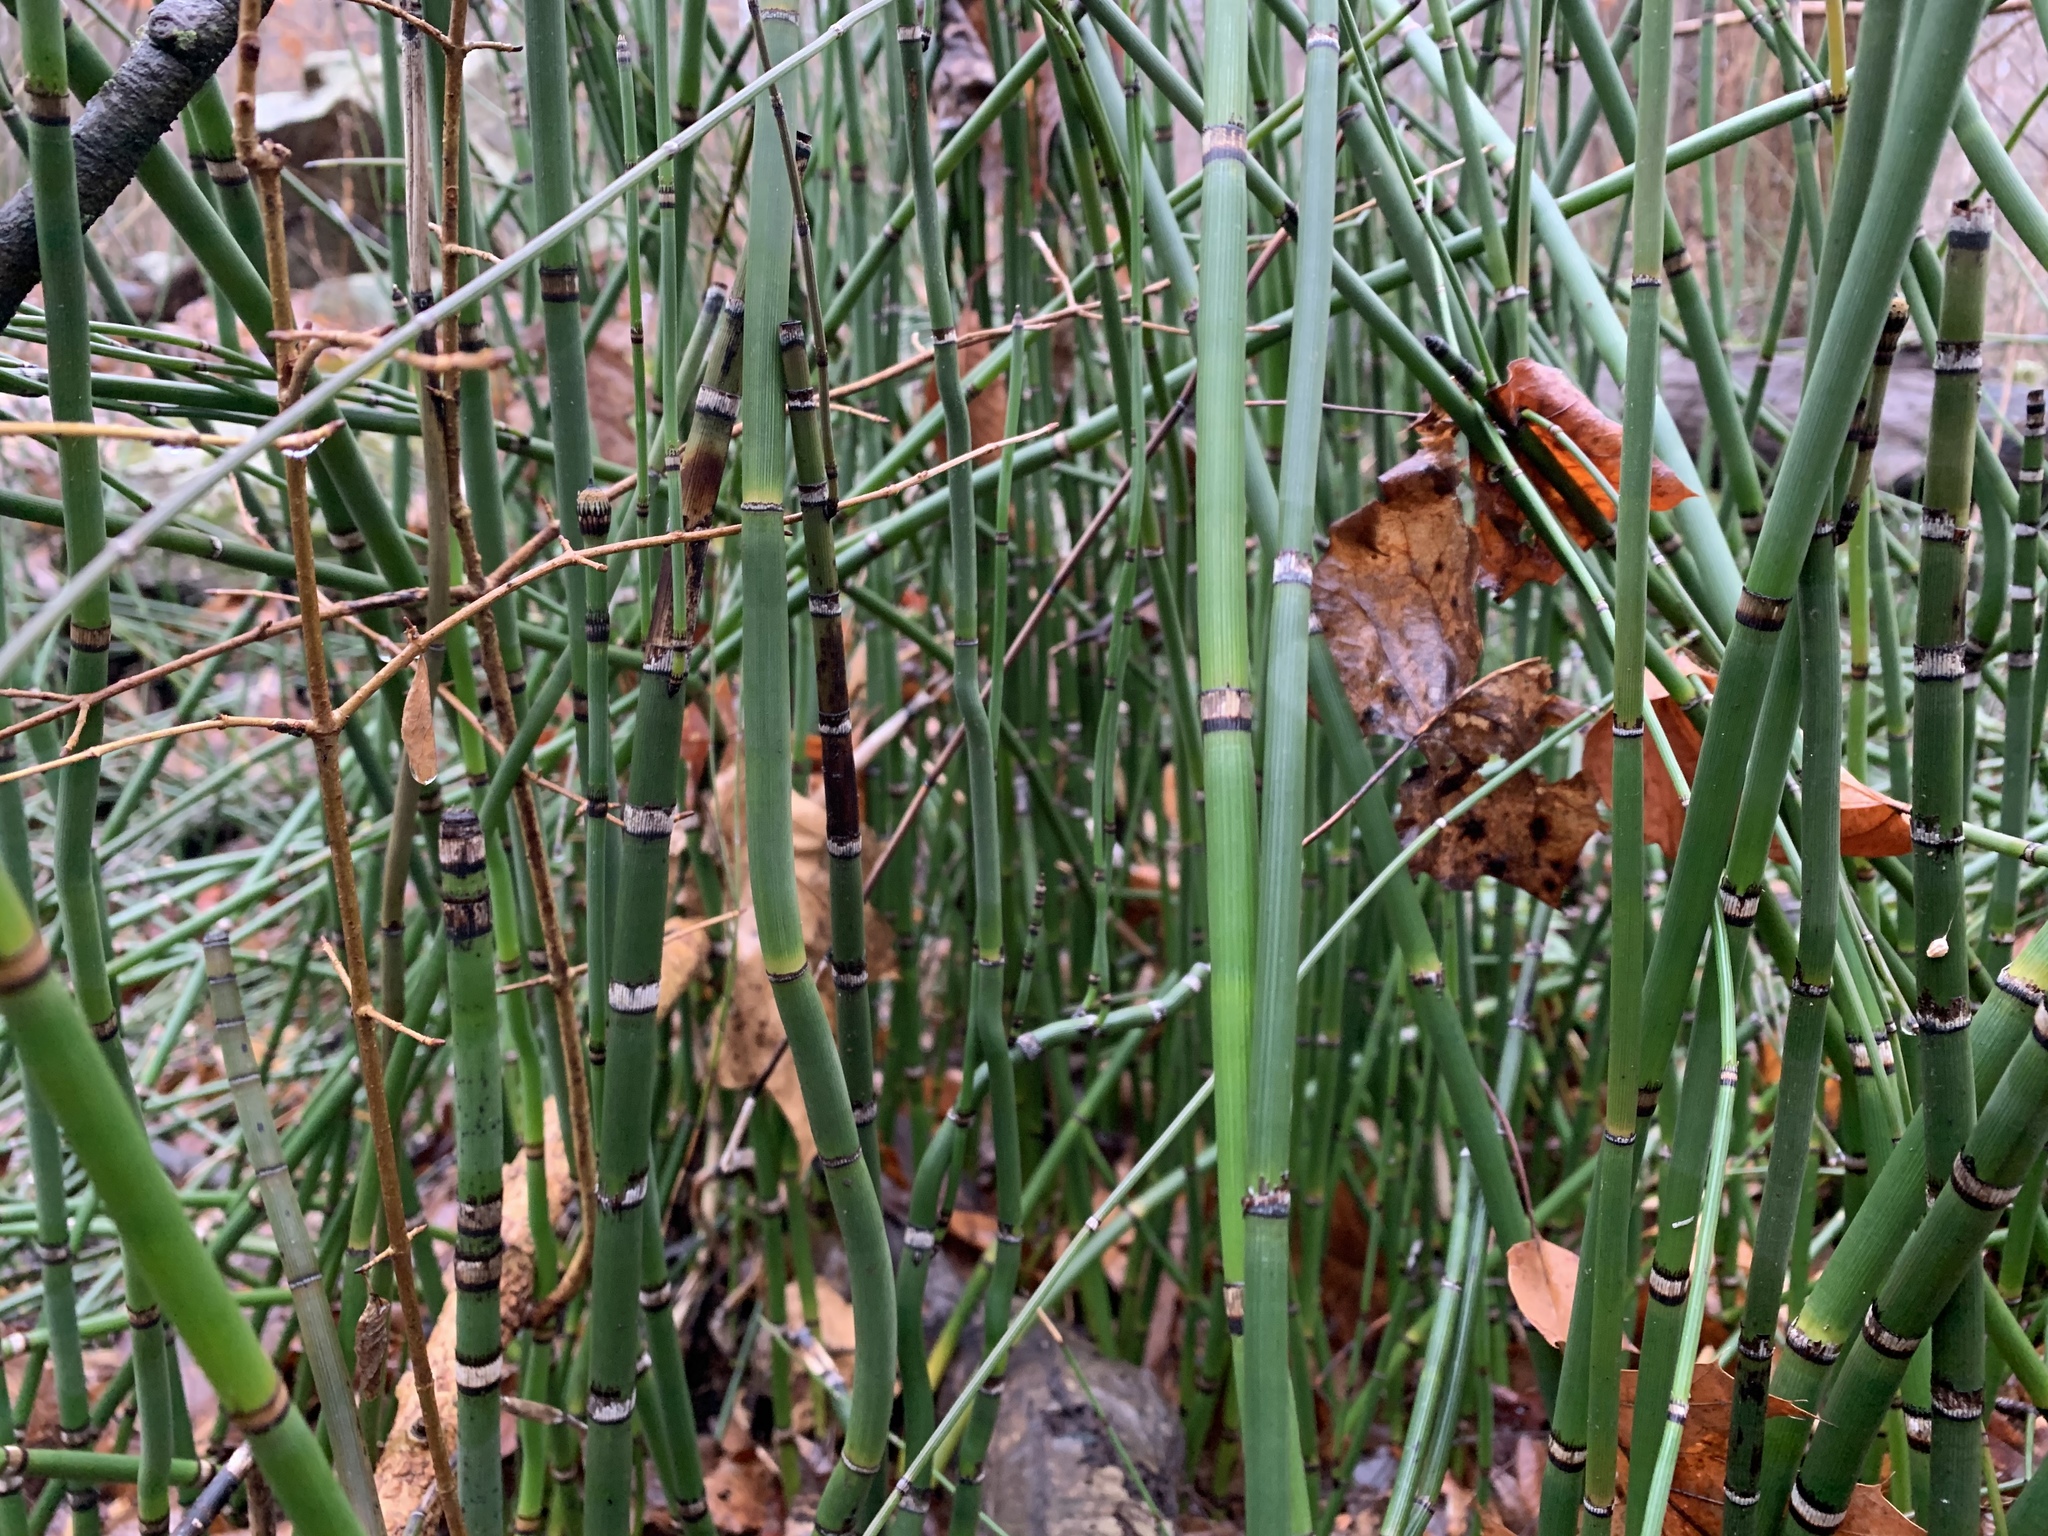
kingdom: Plantae
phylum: Tracheophyta
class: Polypodiopsida
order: Equisetales
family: Equisetaceae
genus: Equisetum
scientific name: Equisetum praealtum
